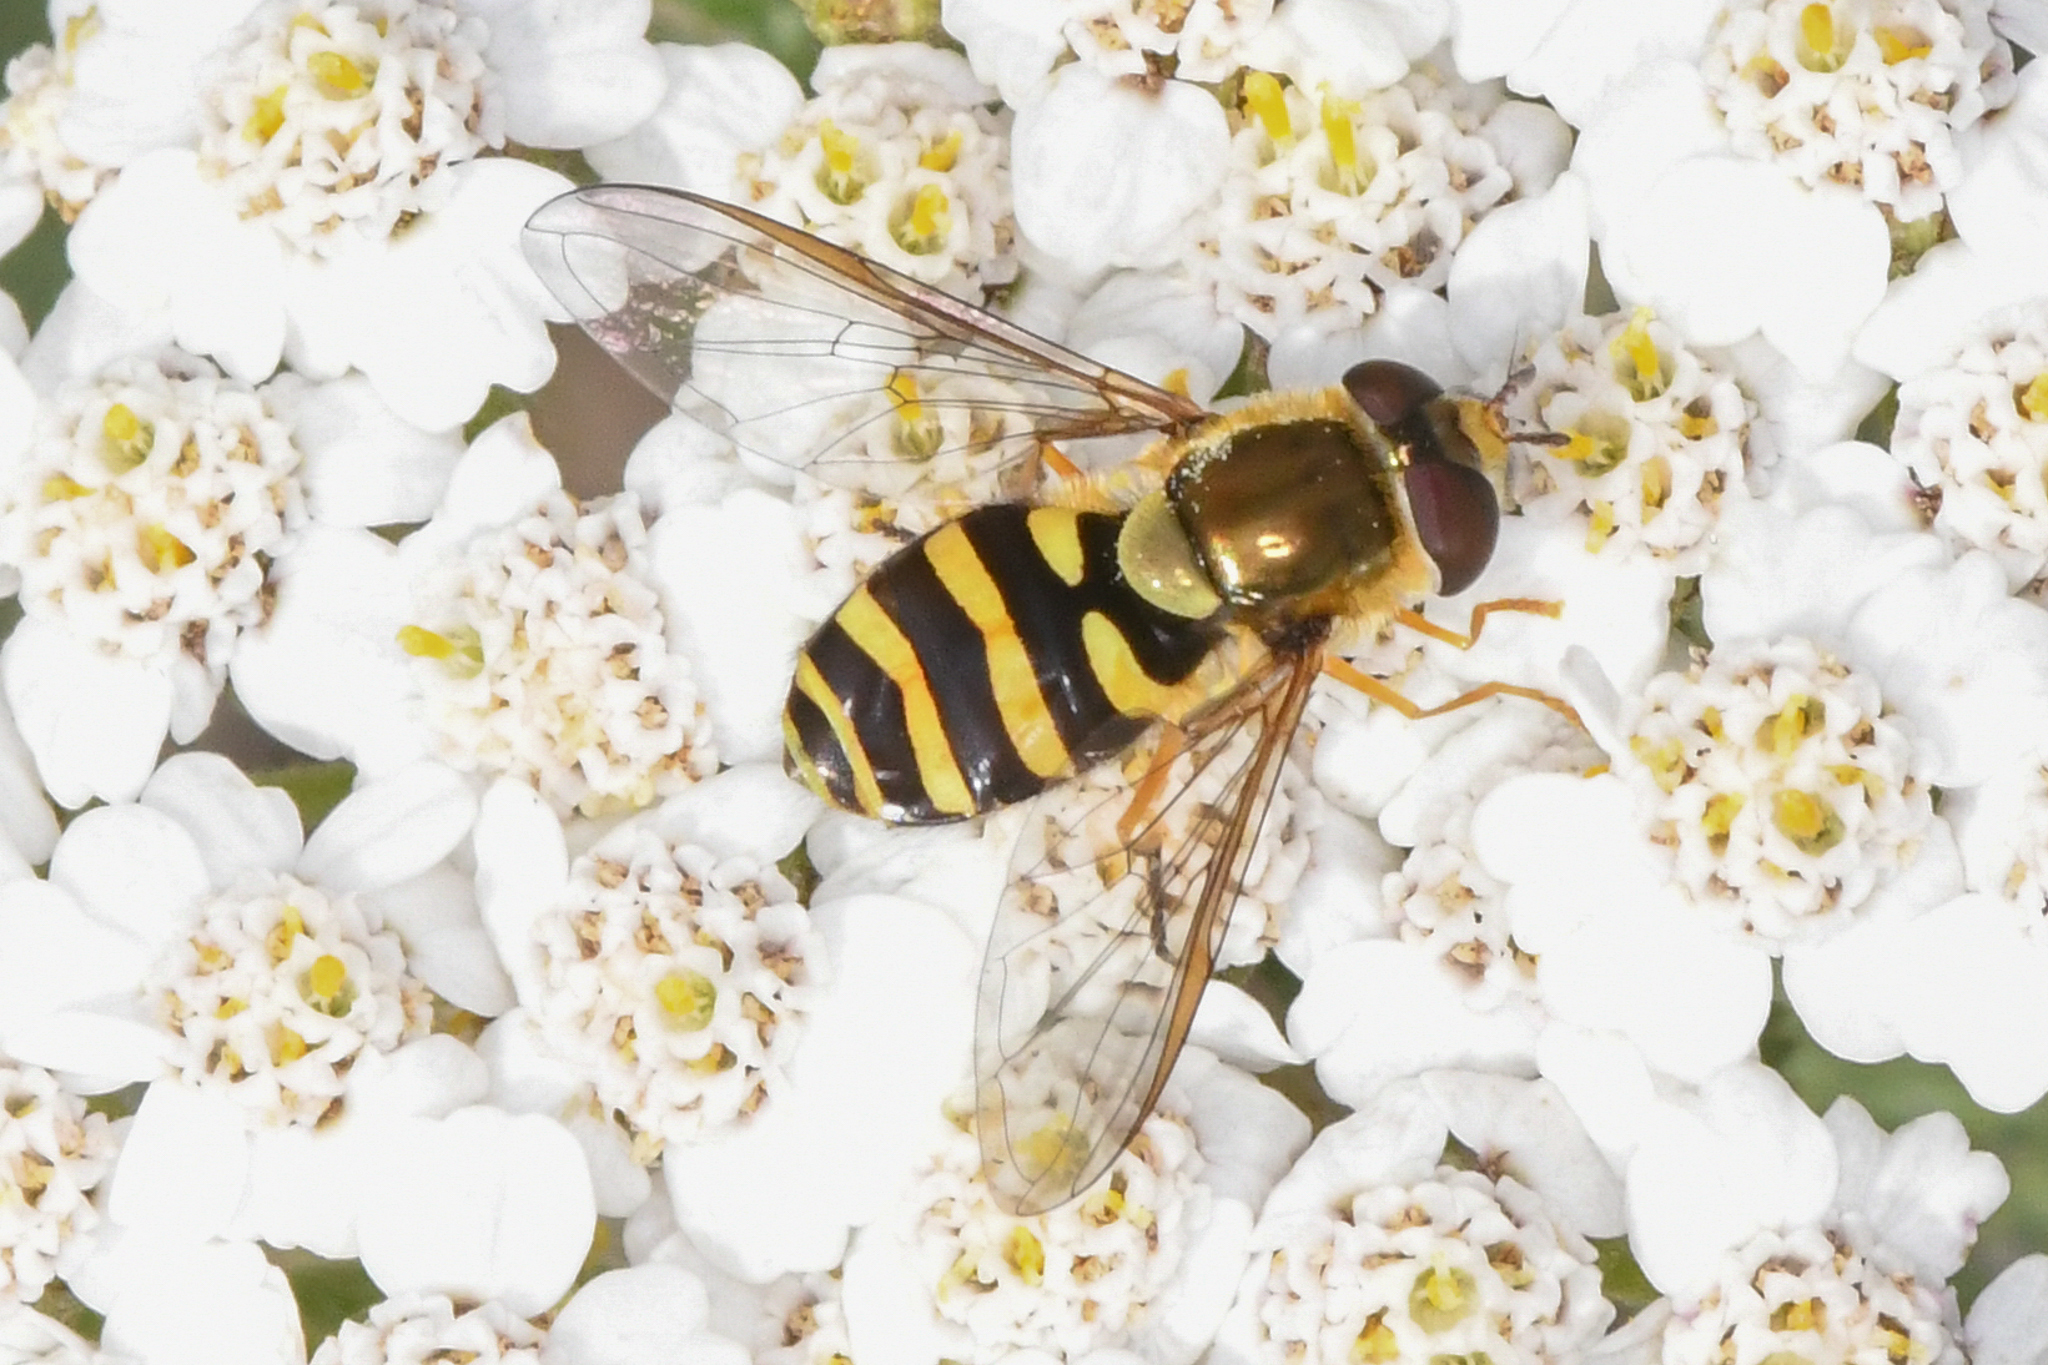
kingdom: Animalia
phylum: Arthropoda
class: Insecta
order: Diptera
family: Syrphidae
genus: Syrphus
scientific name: Syrphus opinator
